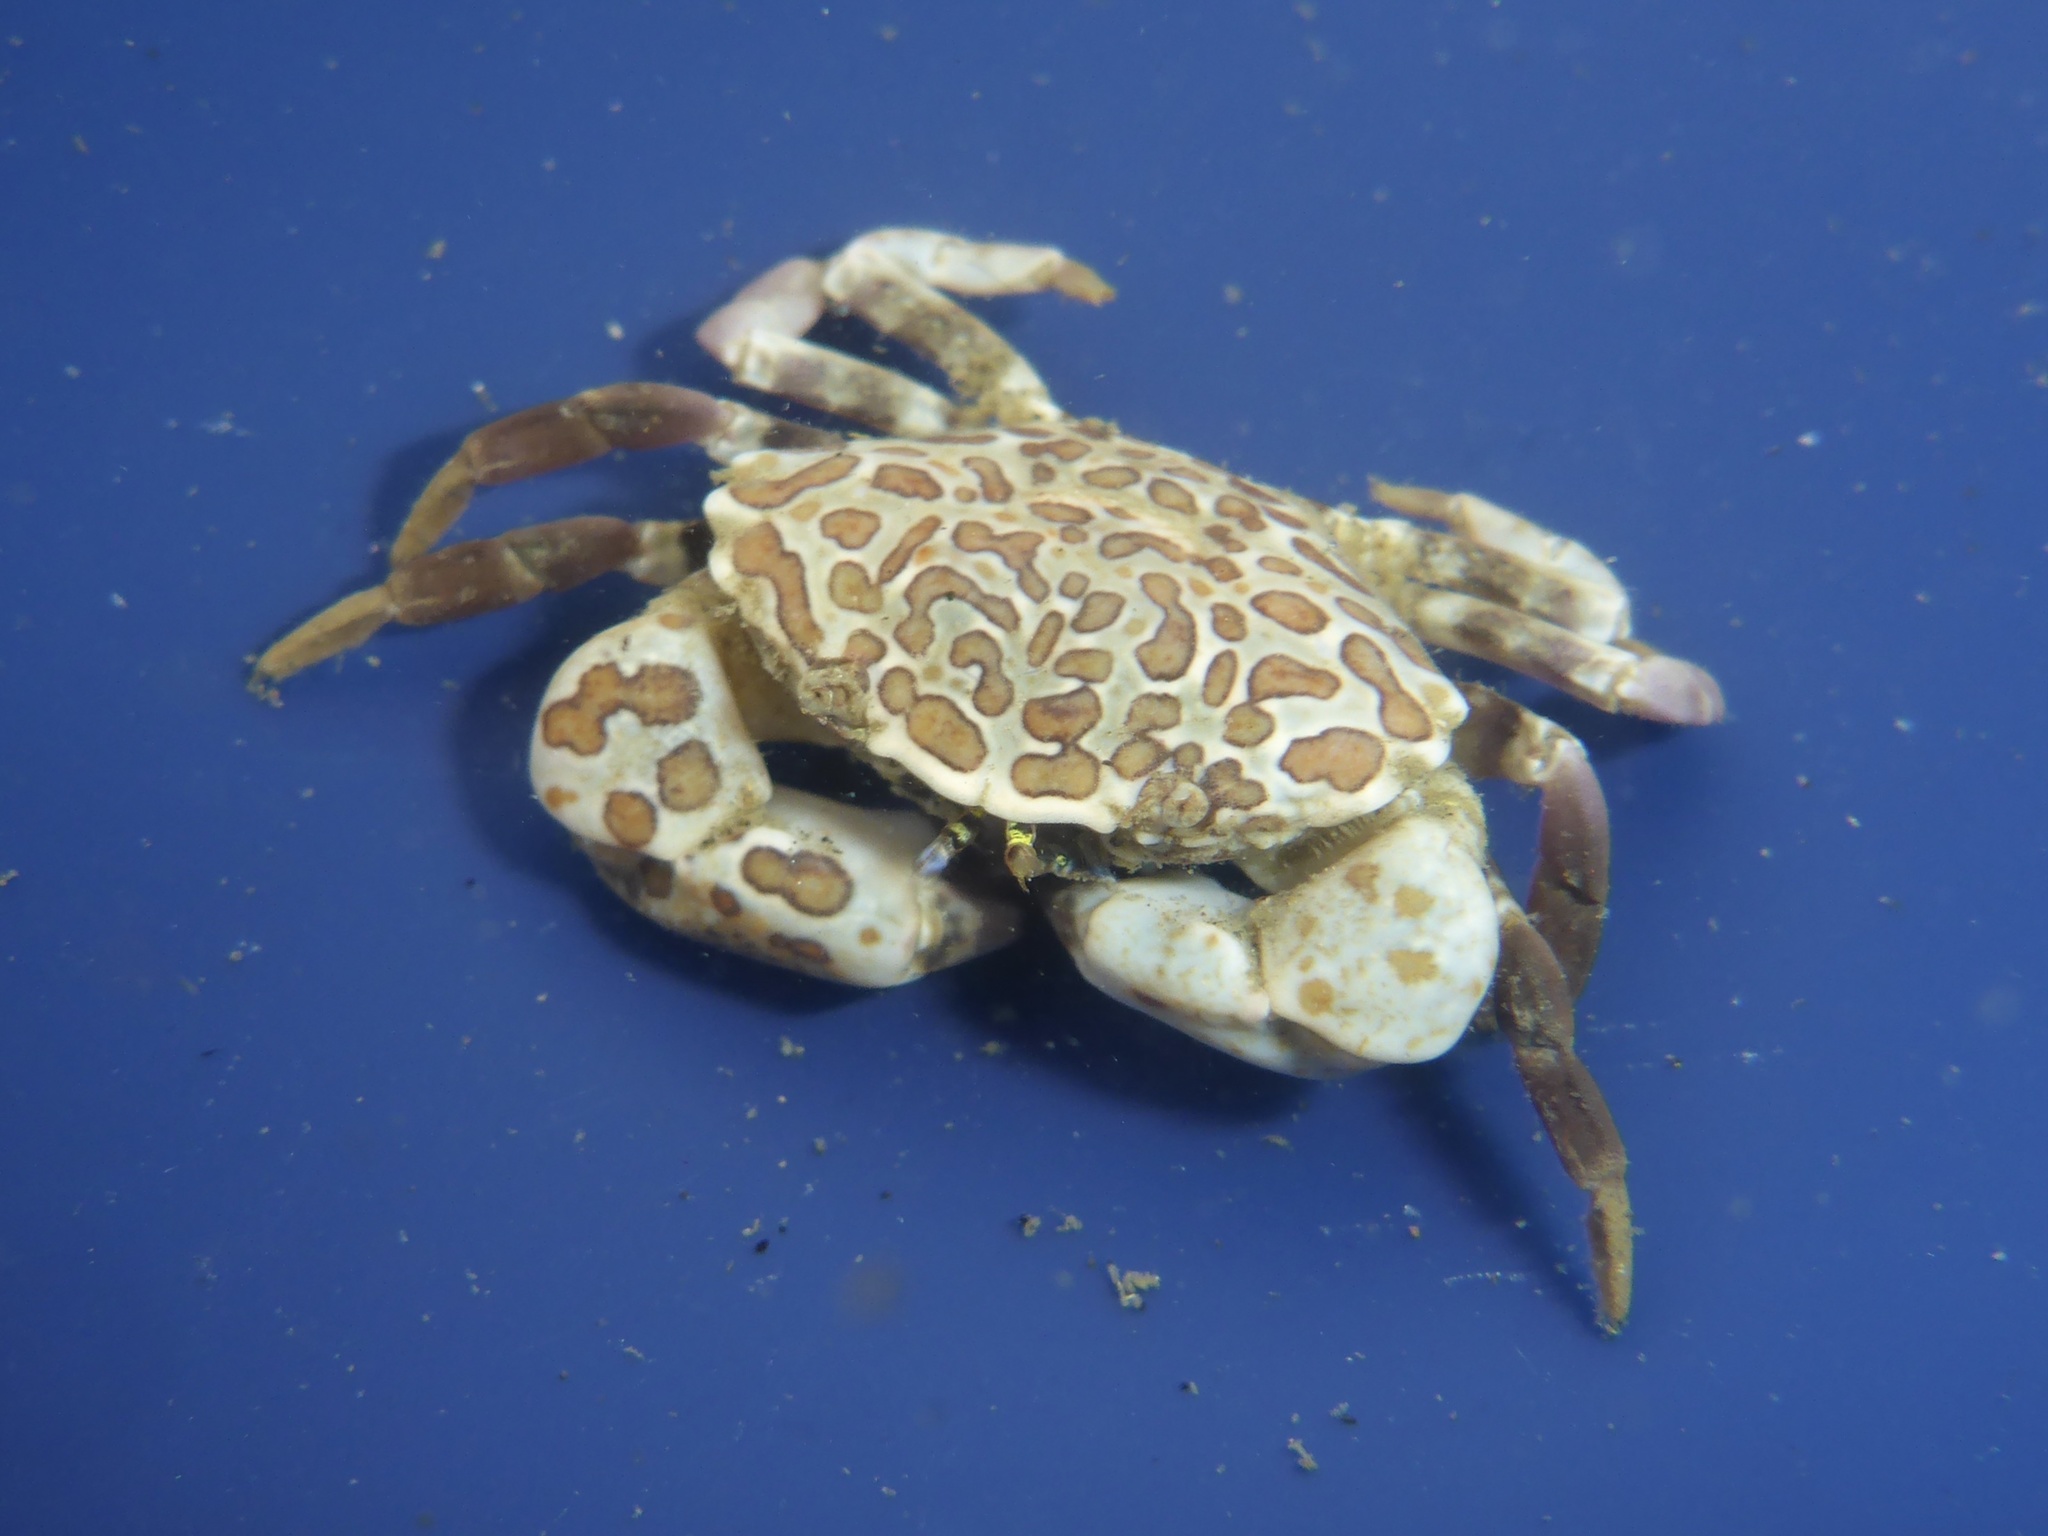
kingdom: Animalia
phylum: Arthropoda
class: Malacostraca
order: Decapoda
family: Panopeidae
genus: Lophopanopeus
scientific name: Lophopanopeus leucomanus
